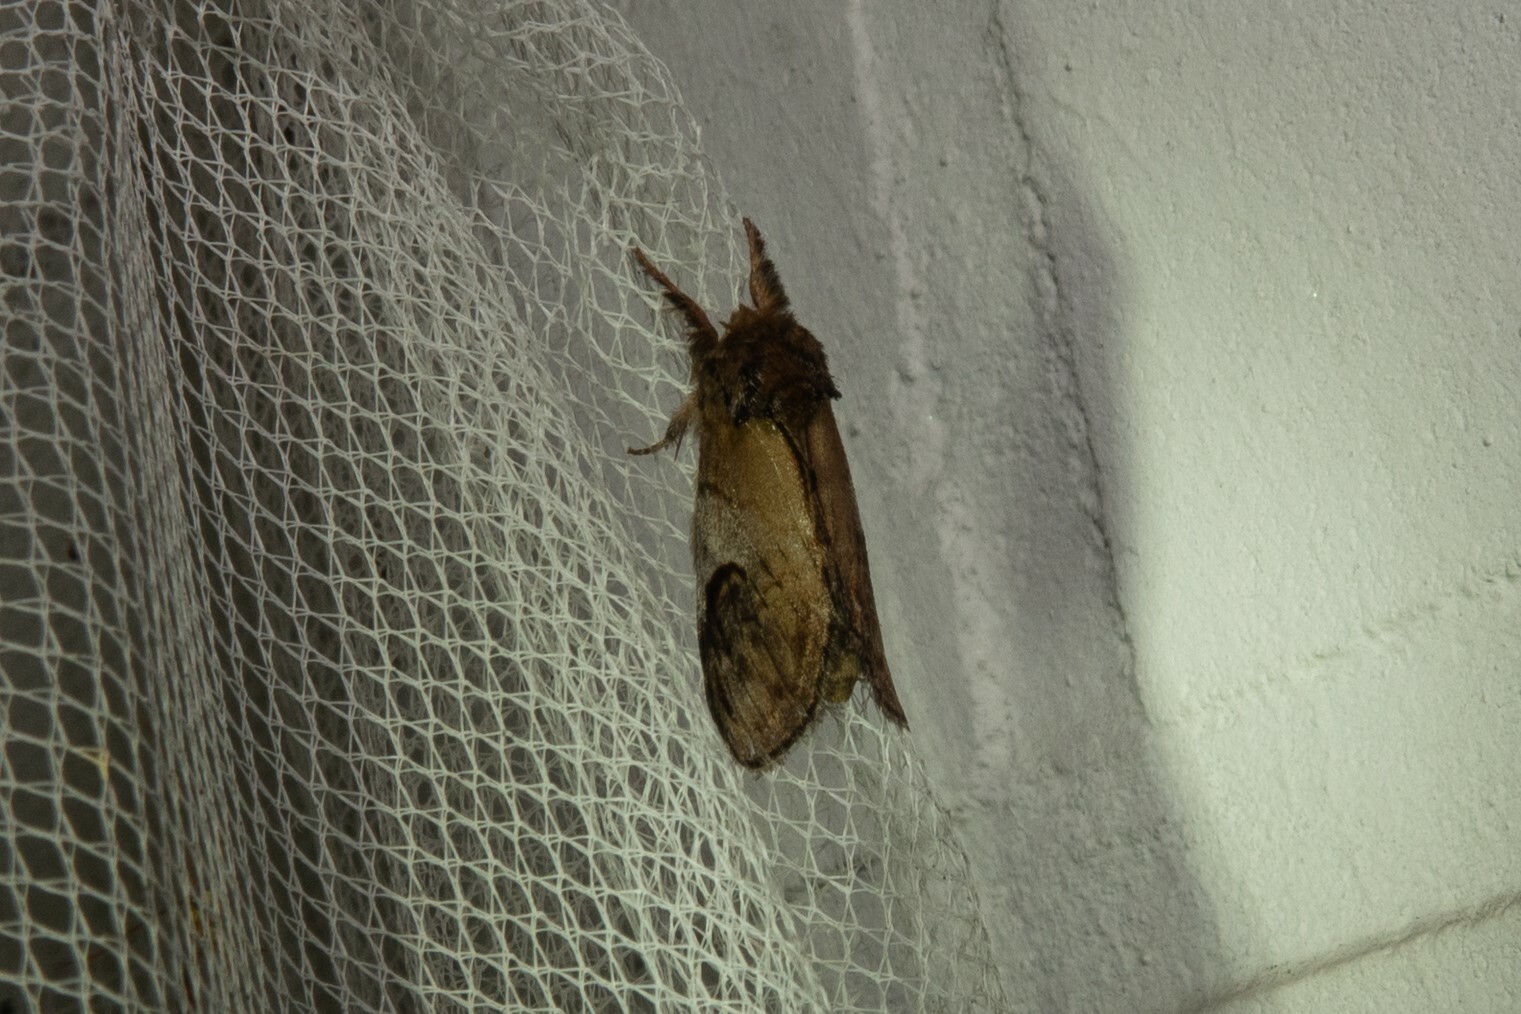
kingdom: Animalia
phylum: Arthropoda
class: Insecta
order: Lepidoptera
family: Notodontidae
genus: Notodonta
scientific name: Notodonta ziczac
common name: Pebble prominent
